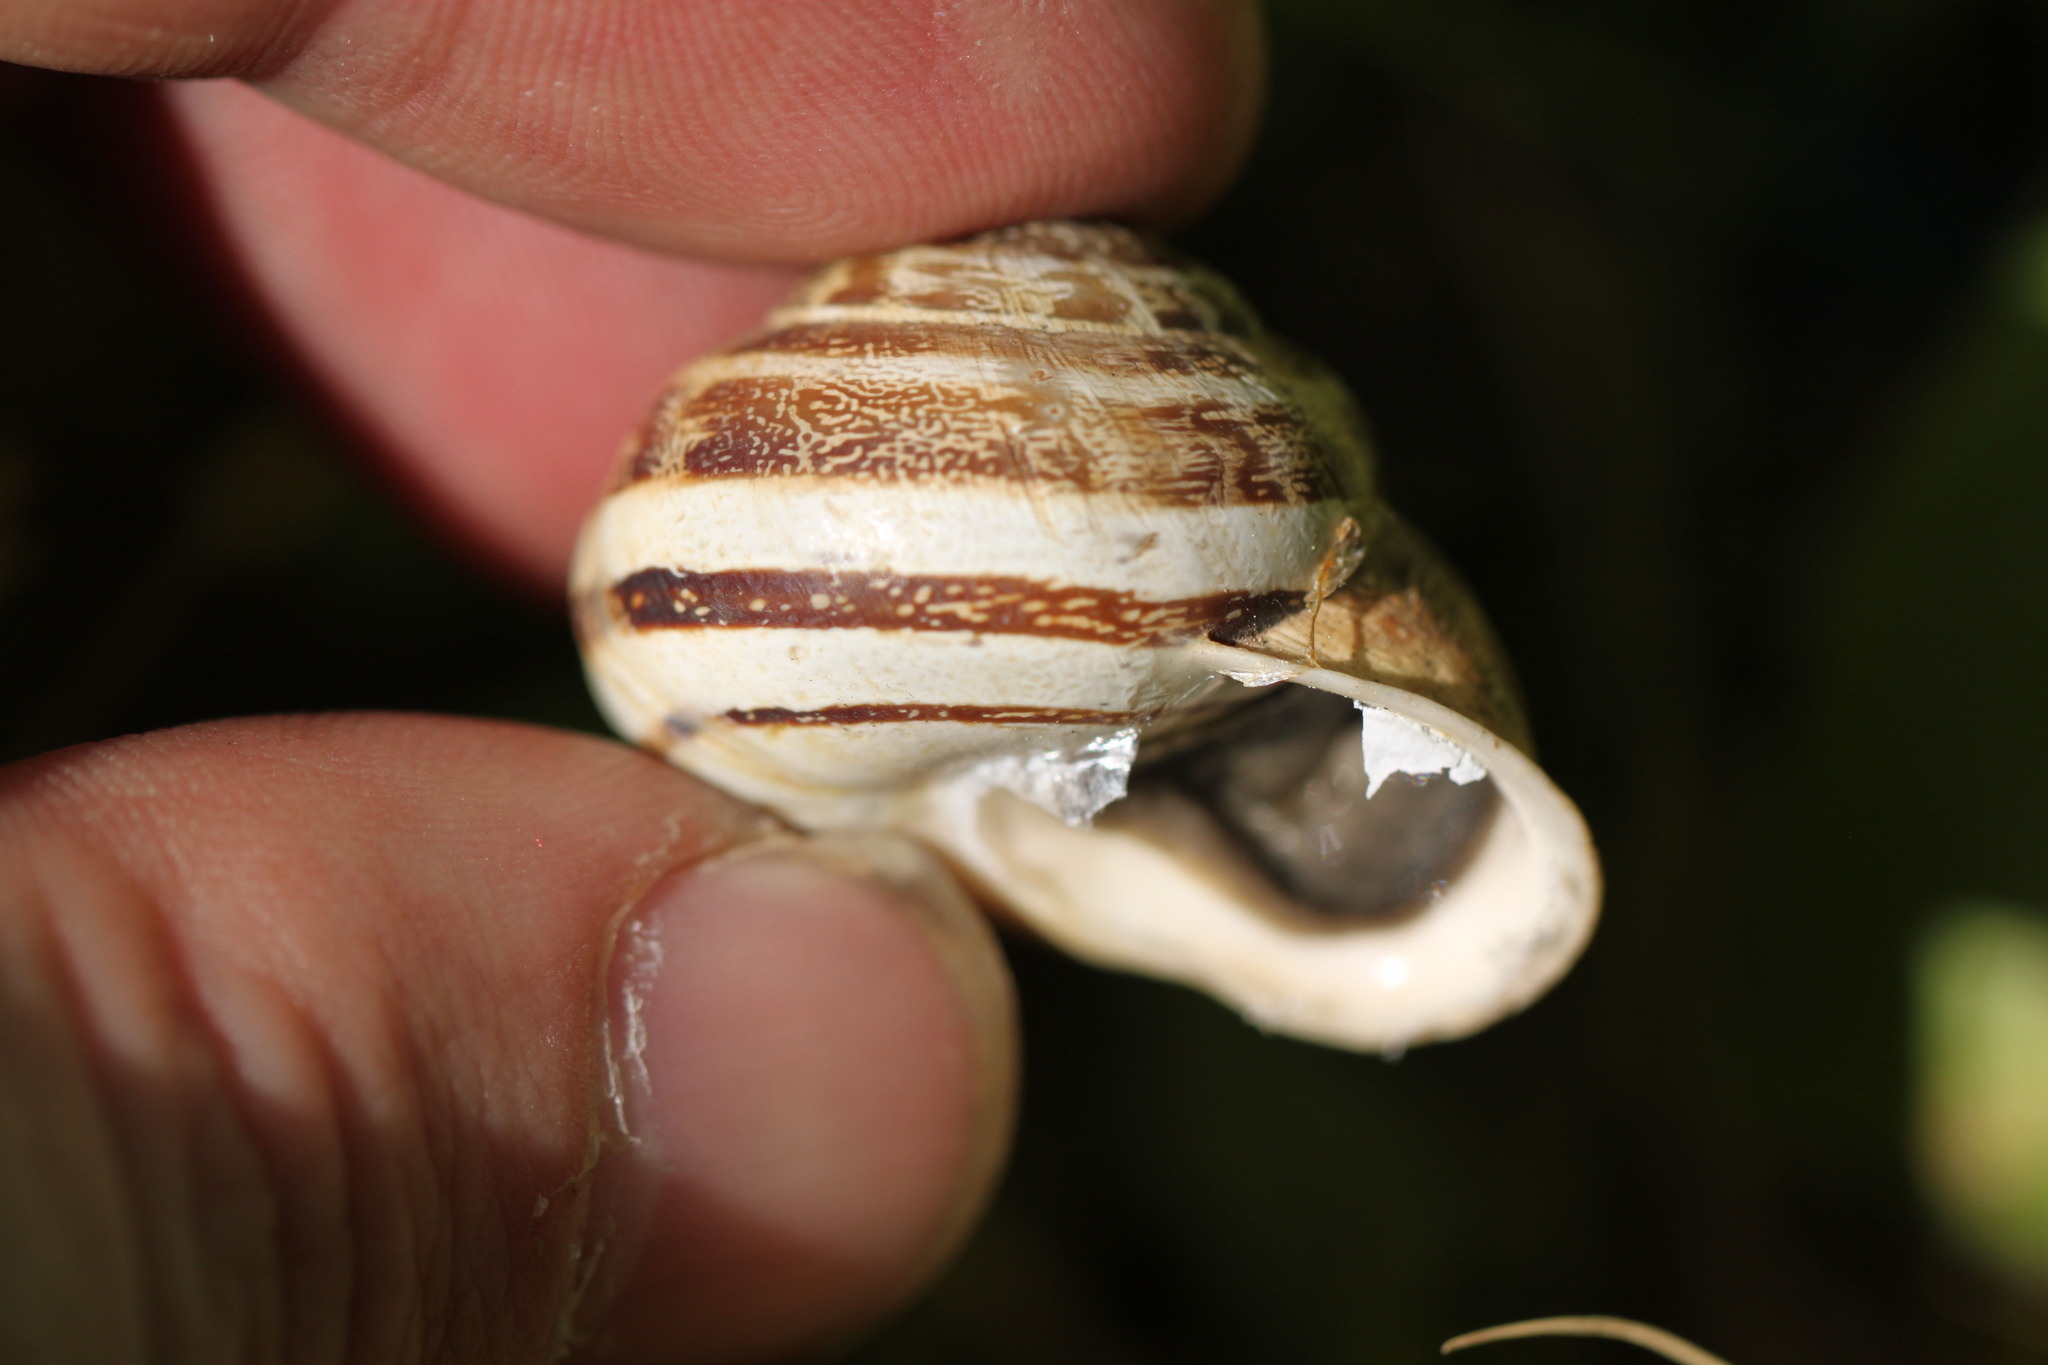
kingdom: Animalia
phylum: Mollusca
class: Gastropoda
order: Stylommatophora
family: Helicidae
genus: Eobania
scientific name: Eobania vermiculata
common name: Chocolateband snail
